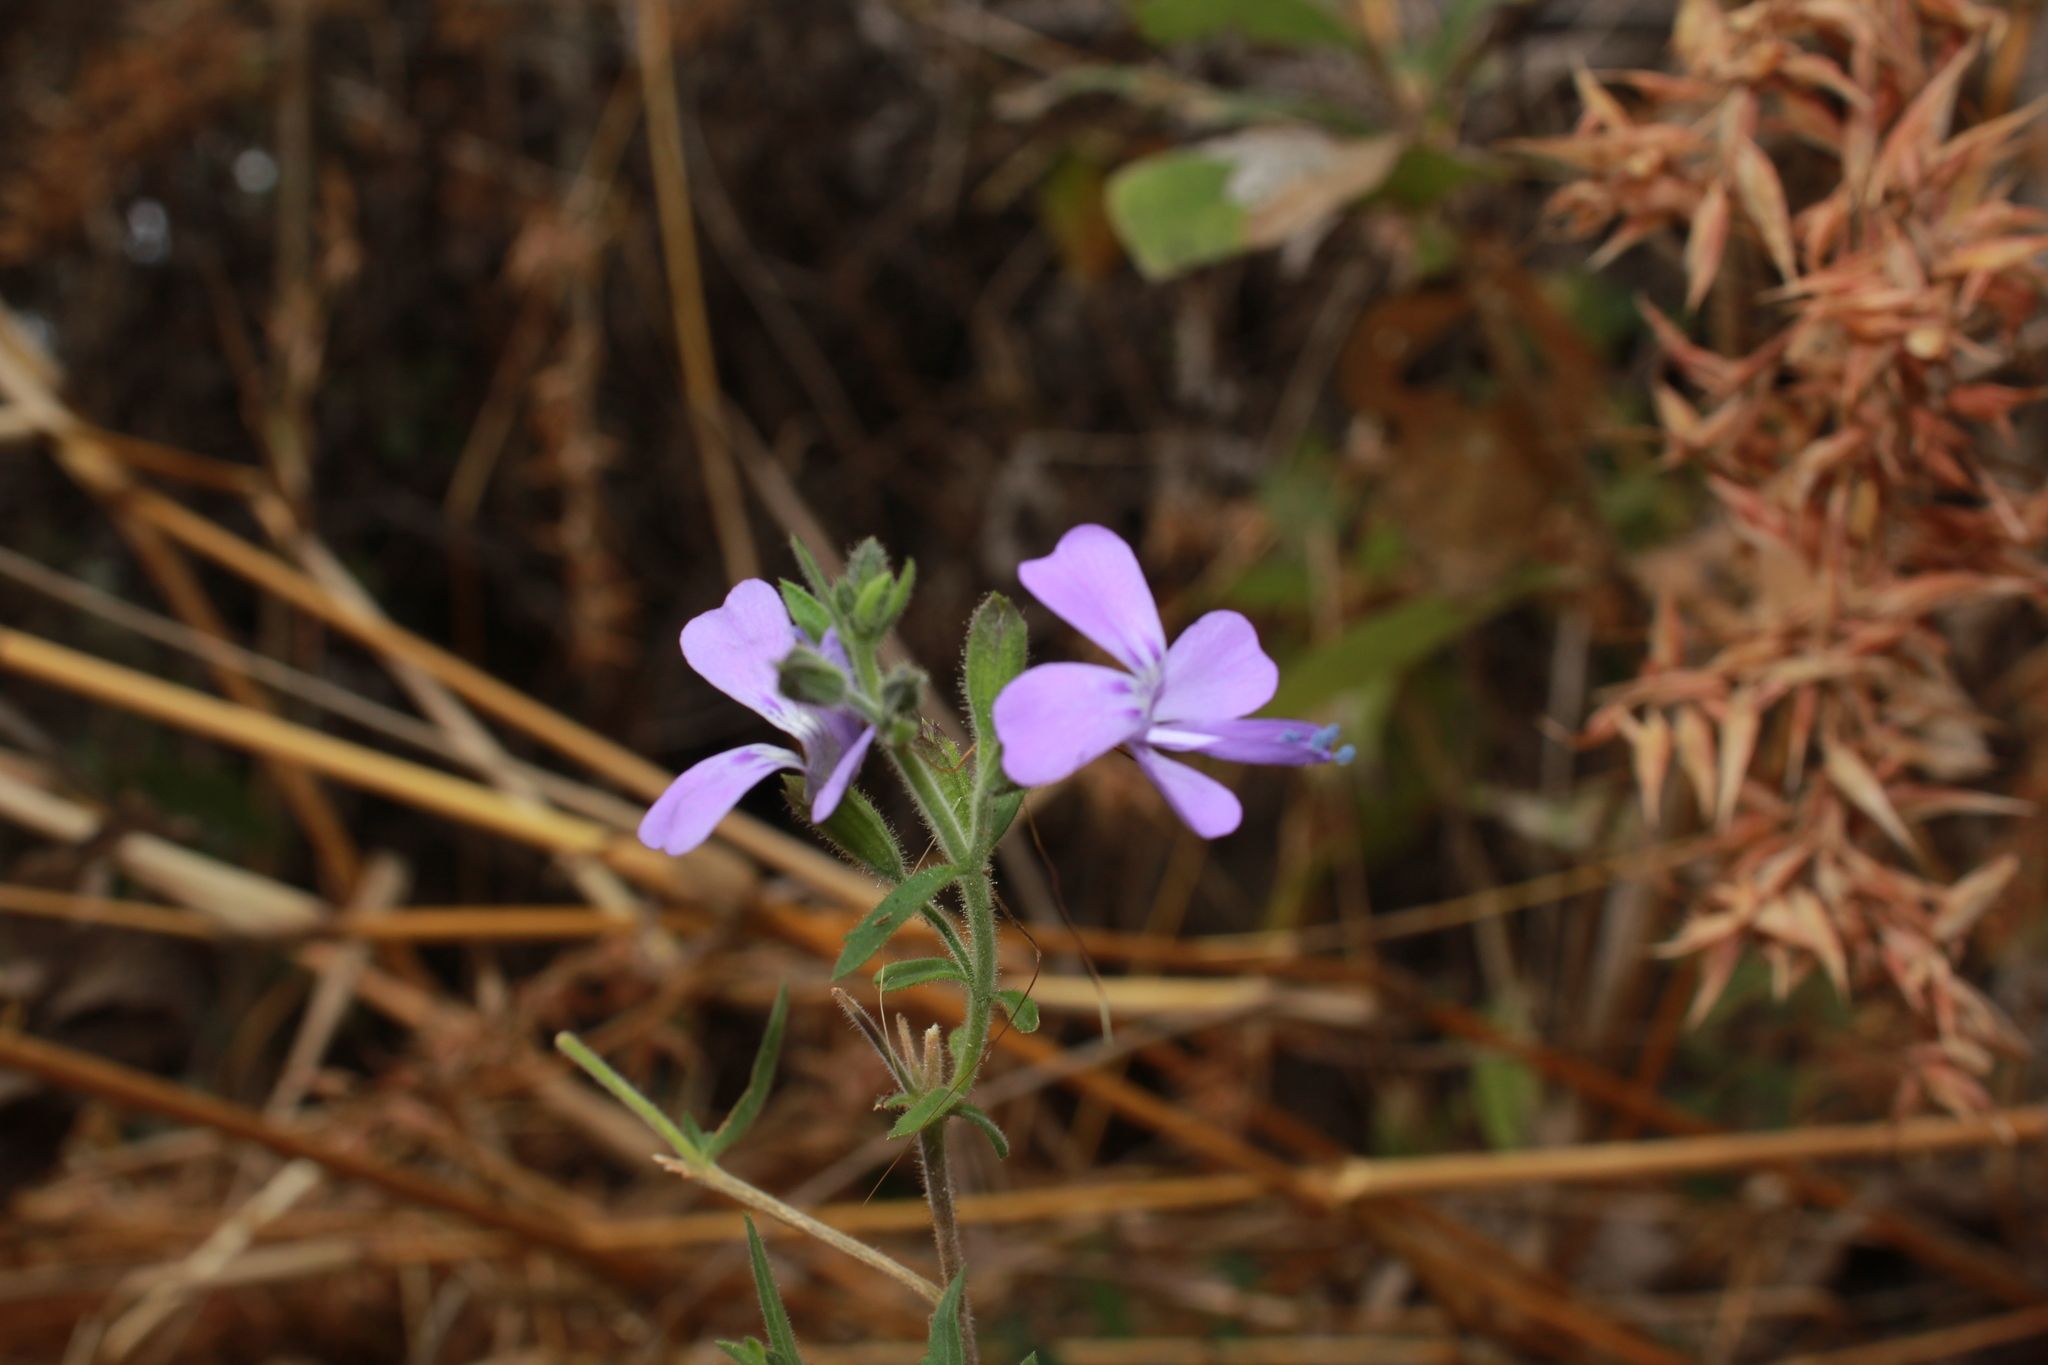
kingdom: Plantae
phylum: Tracheophyta
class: Magnoliopsida
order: Ericales
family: Polemoniaceae
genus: Bonplandia
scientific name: Bonplandia geminiflora
